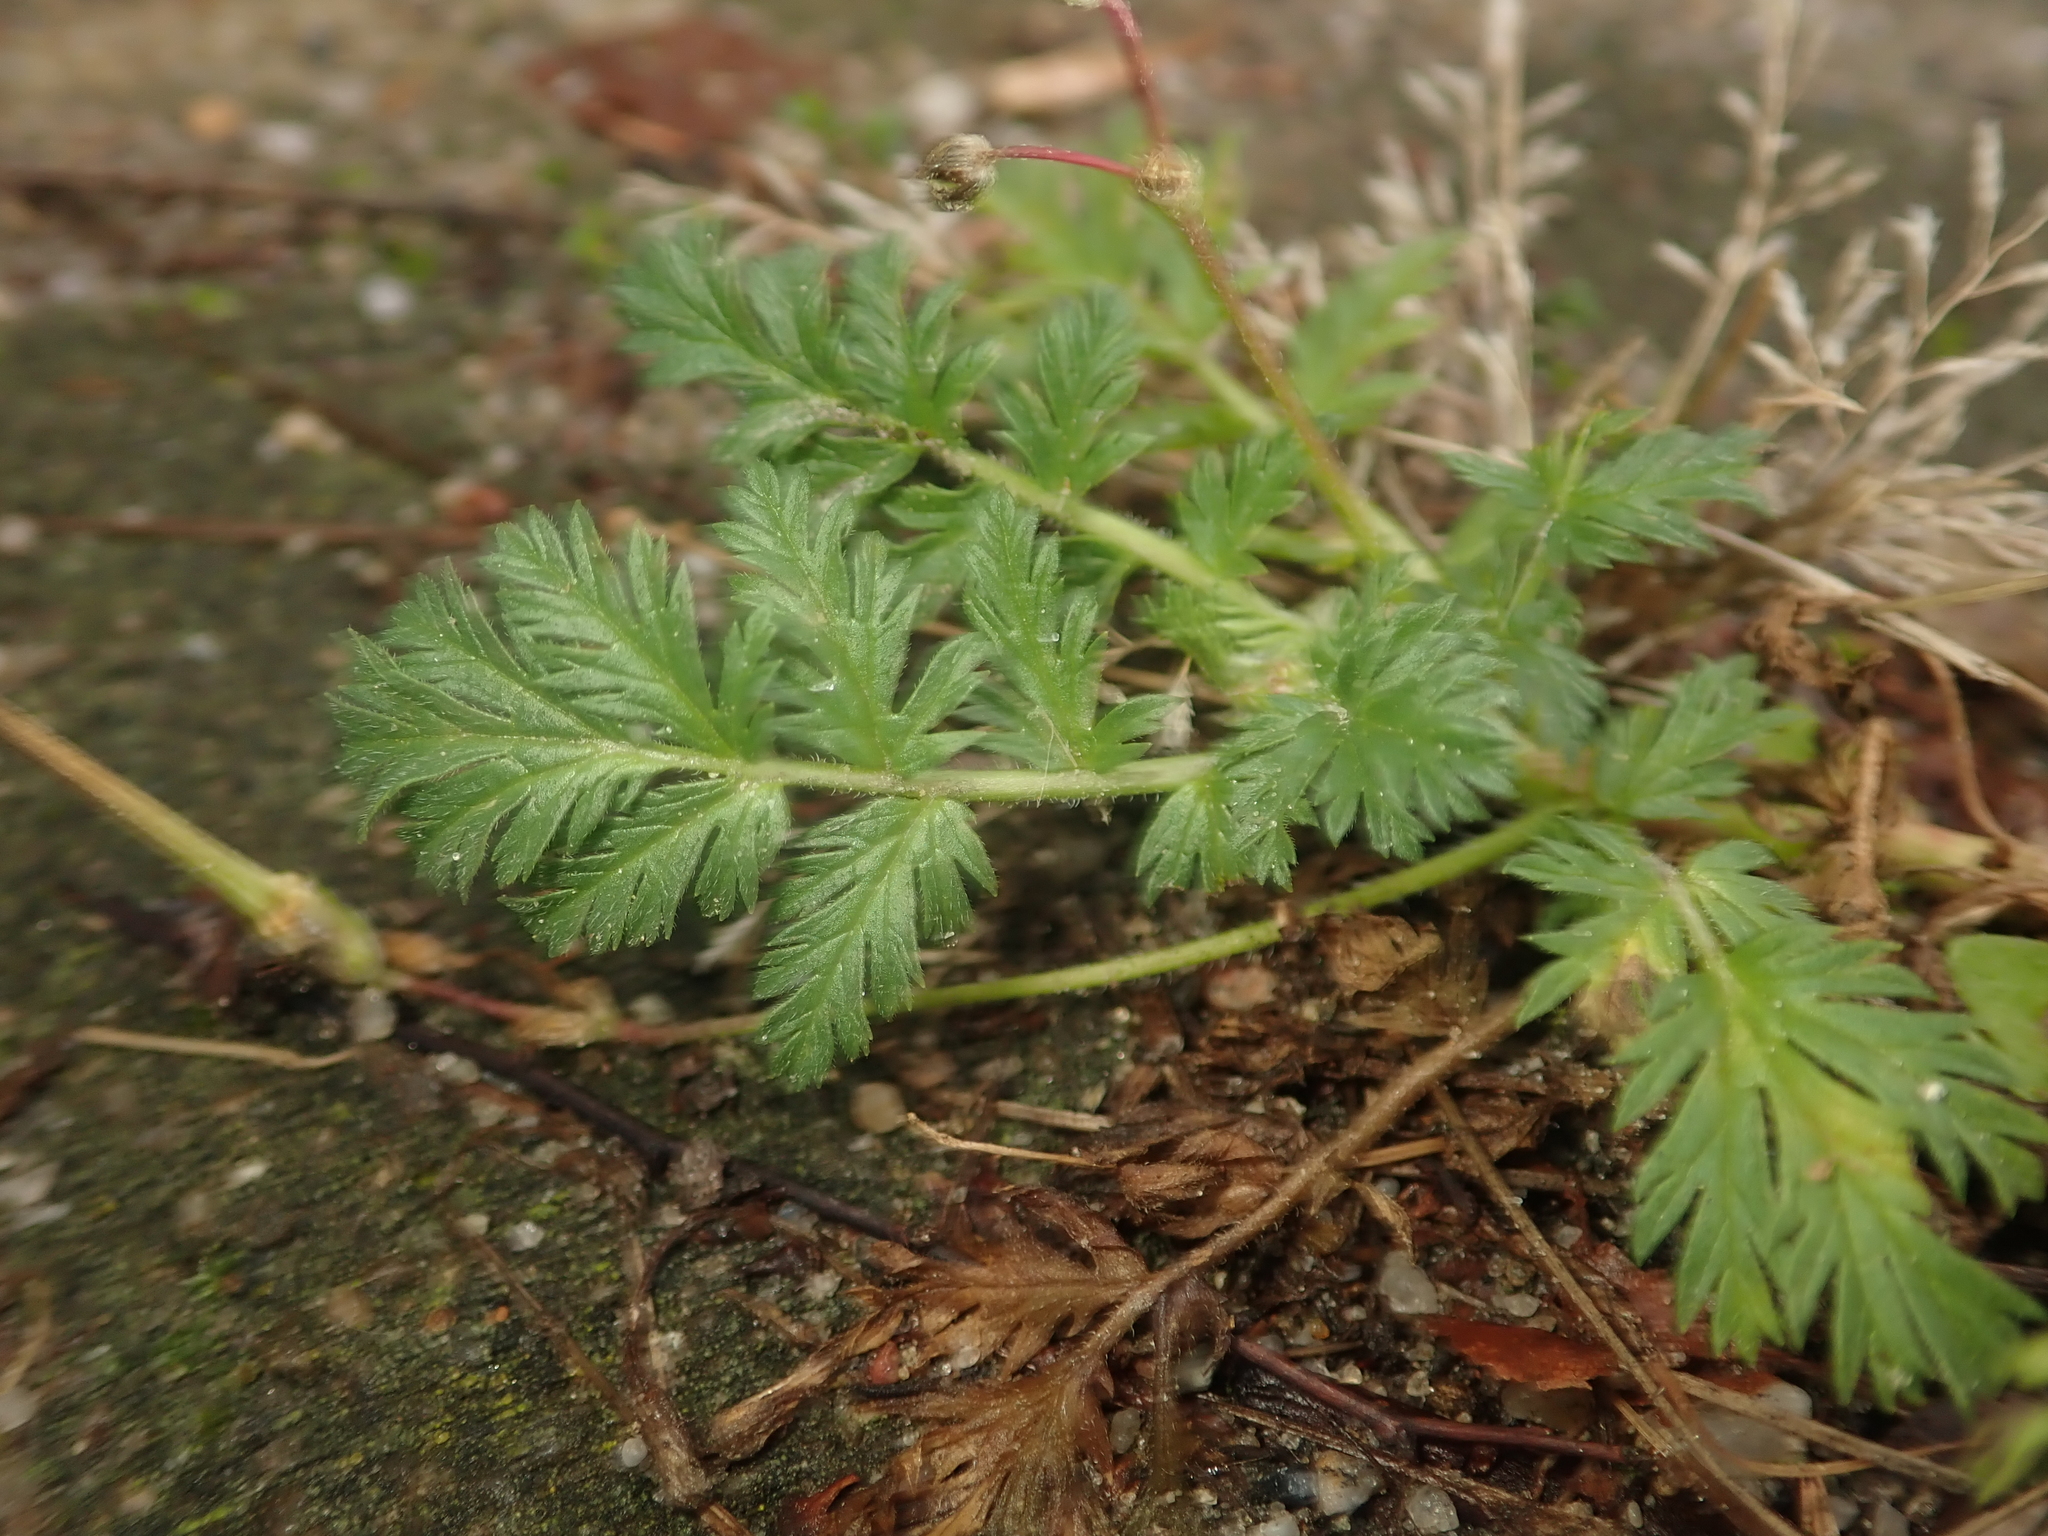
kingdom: Plantae
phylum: Tracheophyta
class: Magnoliopsida
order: Geraniales
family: Geraniaceae
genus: Erodium
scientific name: Erodium cicutarium
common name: Common stork's-bill
